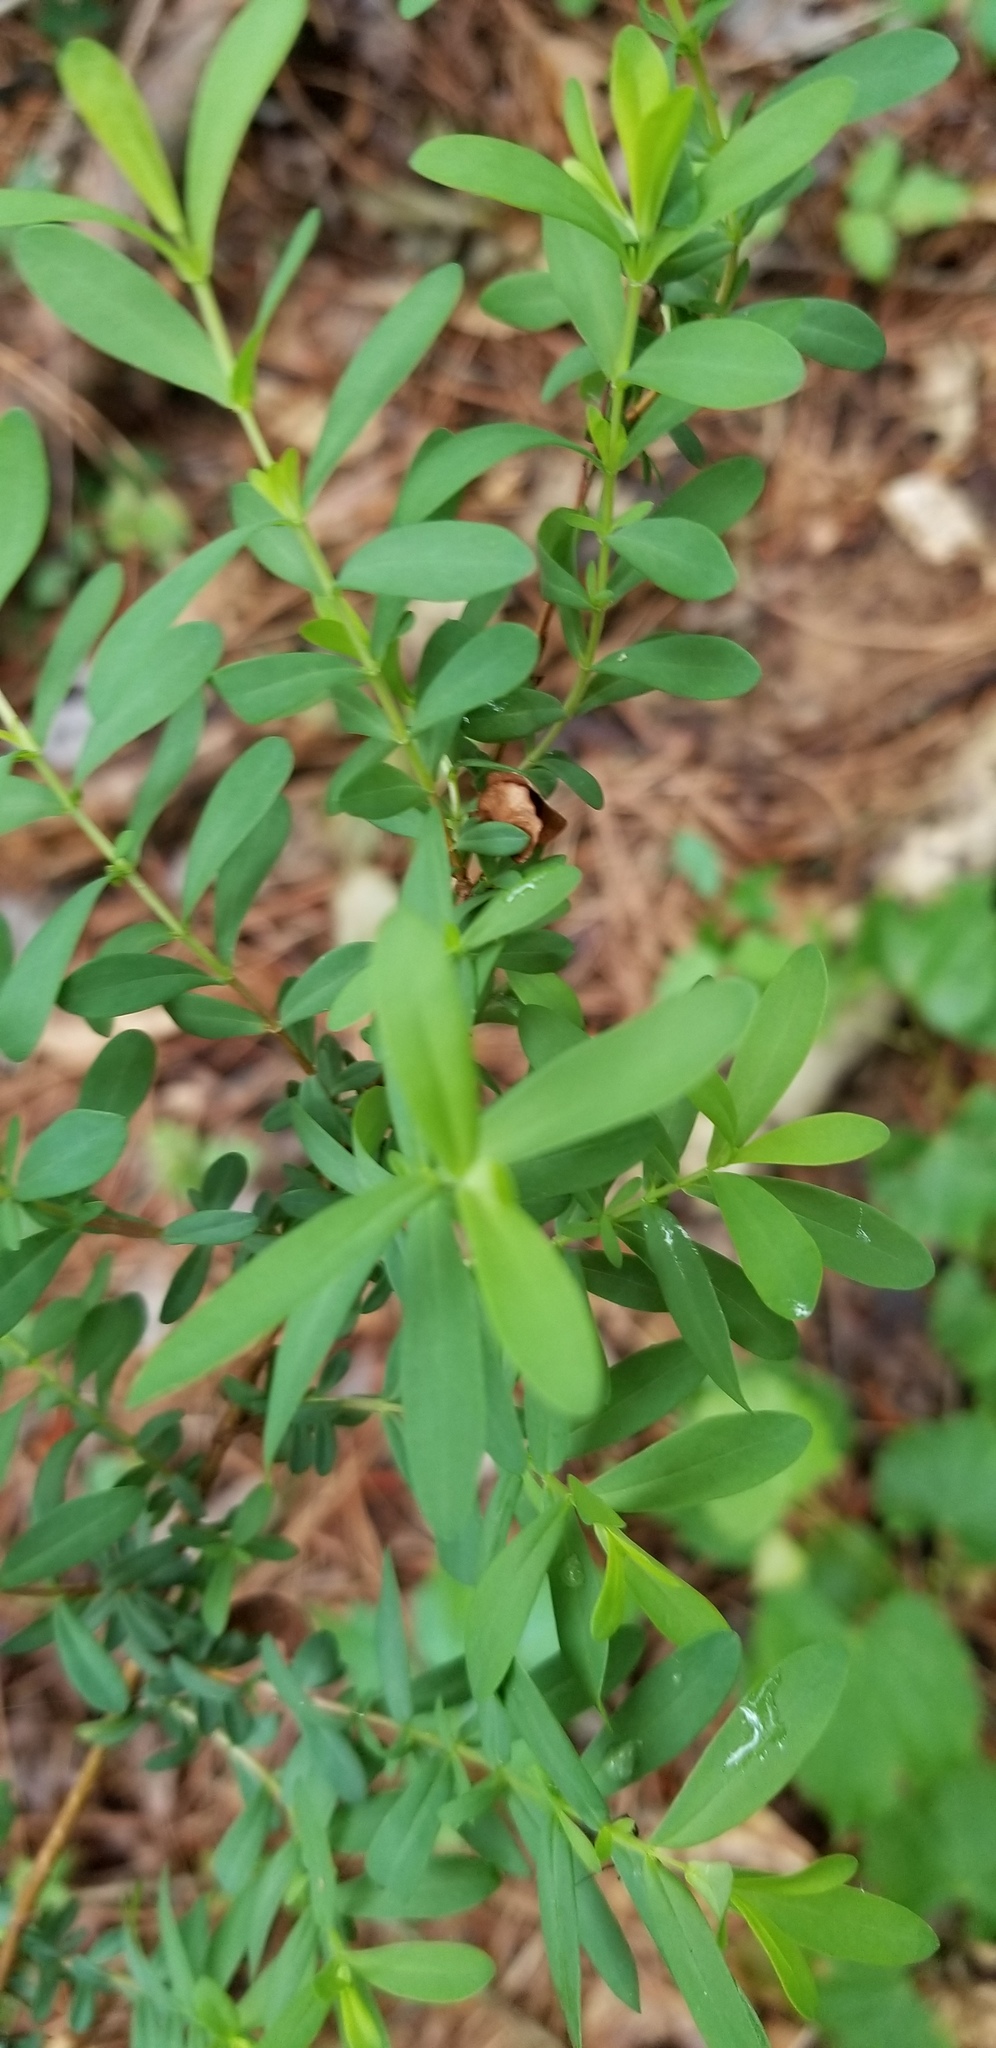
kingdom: Plantae
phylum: Tracheophyta
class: Magnoliopsida
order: Malpighiales
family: Hypericaceae
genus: Hypericum
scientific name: Hypericum hypericoides
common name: St. andrew's cross
